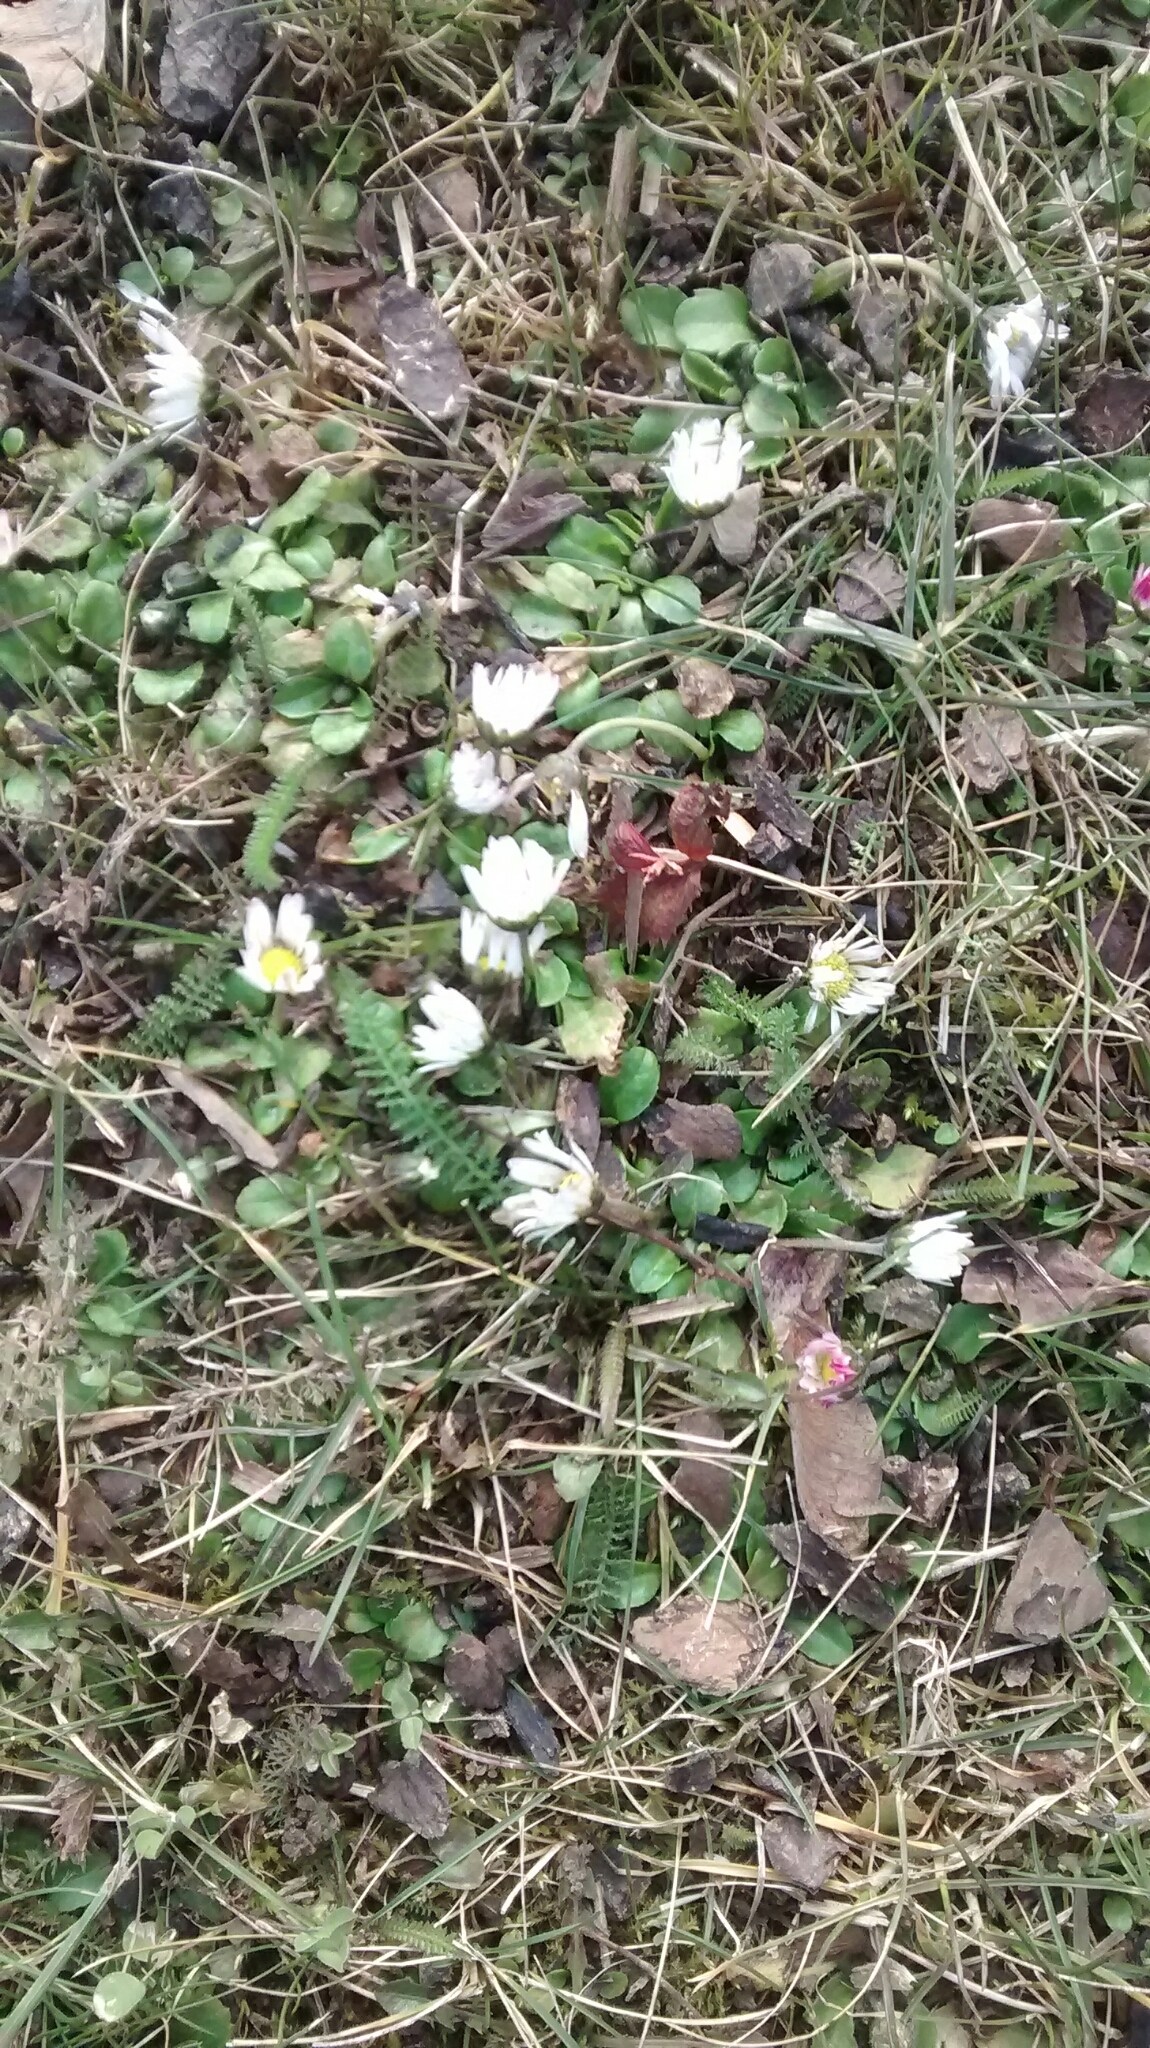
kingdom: Plantae
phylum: Tracheophyta
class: Magnoliopsida
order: Asterales
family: Asteraceae
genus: Bellis
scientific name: Bellis perennis
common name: Lawndaisy
